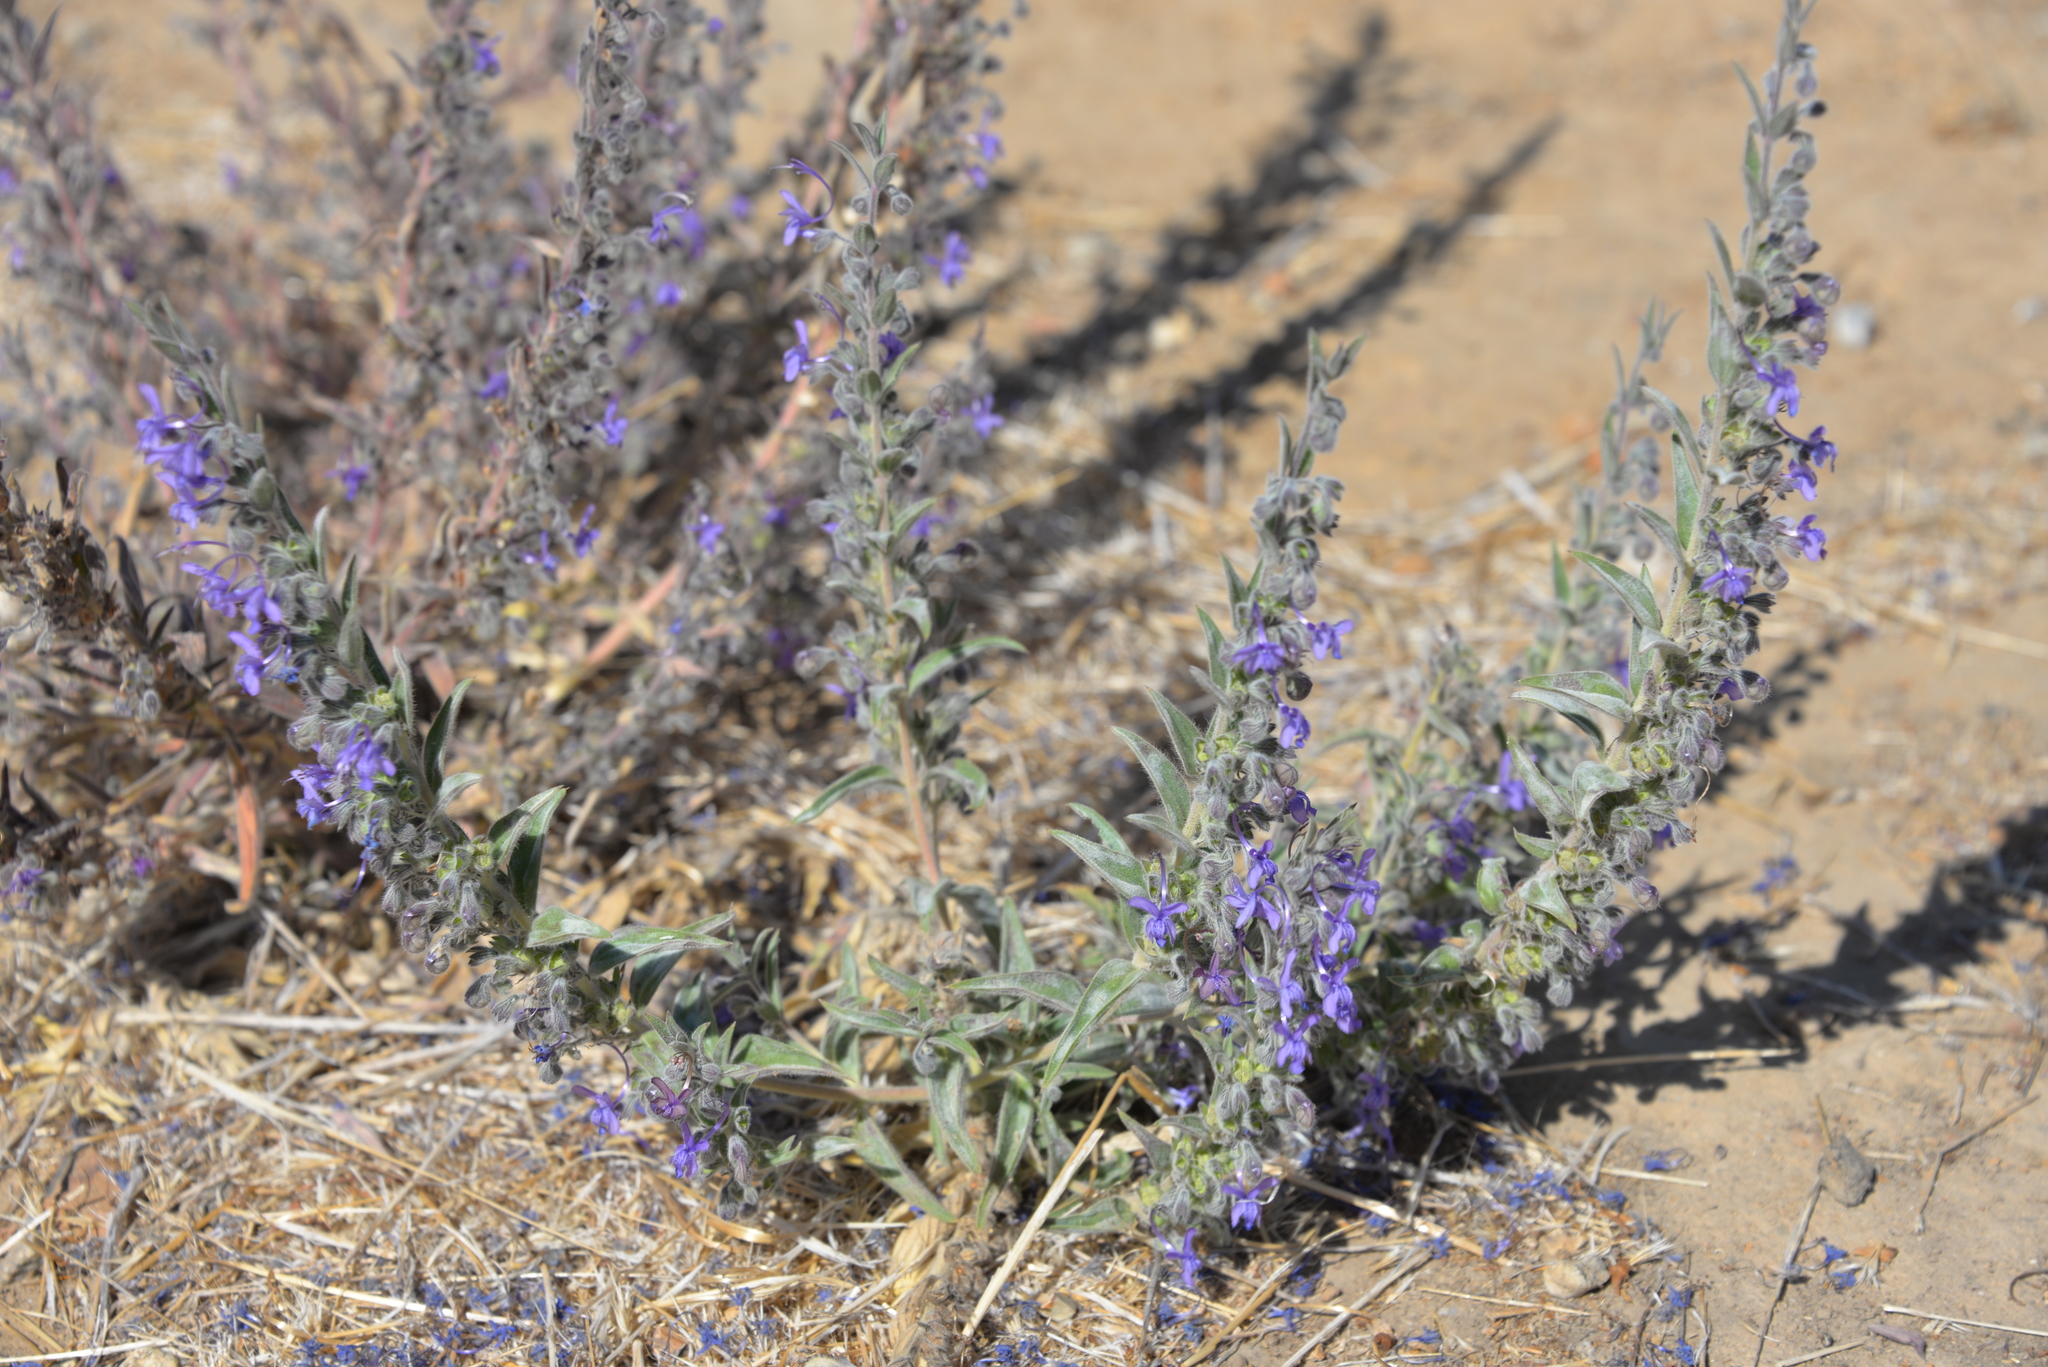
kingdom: Plantae
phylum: Tracheophyta
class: Magnoliopsida
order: Lamiales
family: Lamiaceae
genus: Trichostema
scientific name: Trichostema lanceolatum
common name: Vinegar-weed
